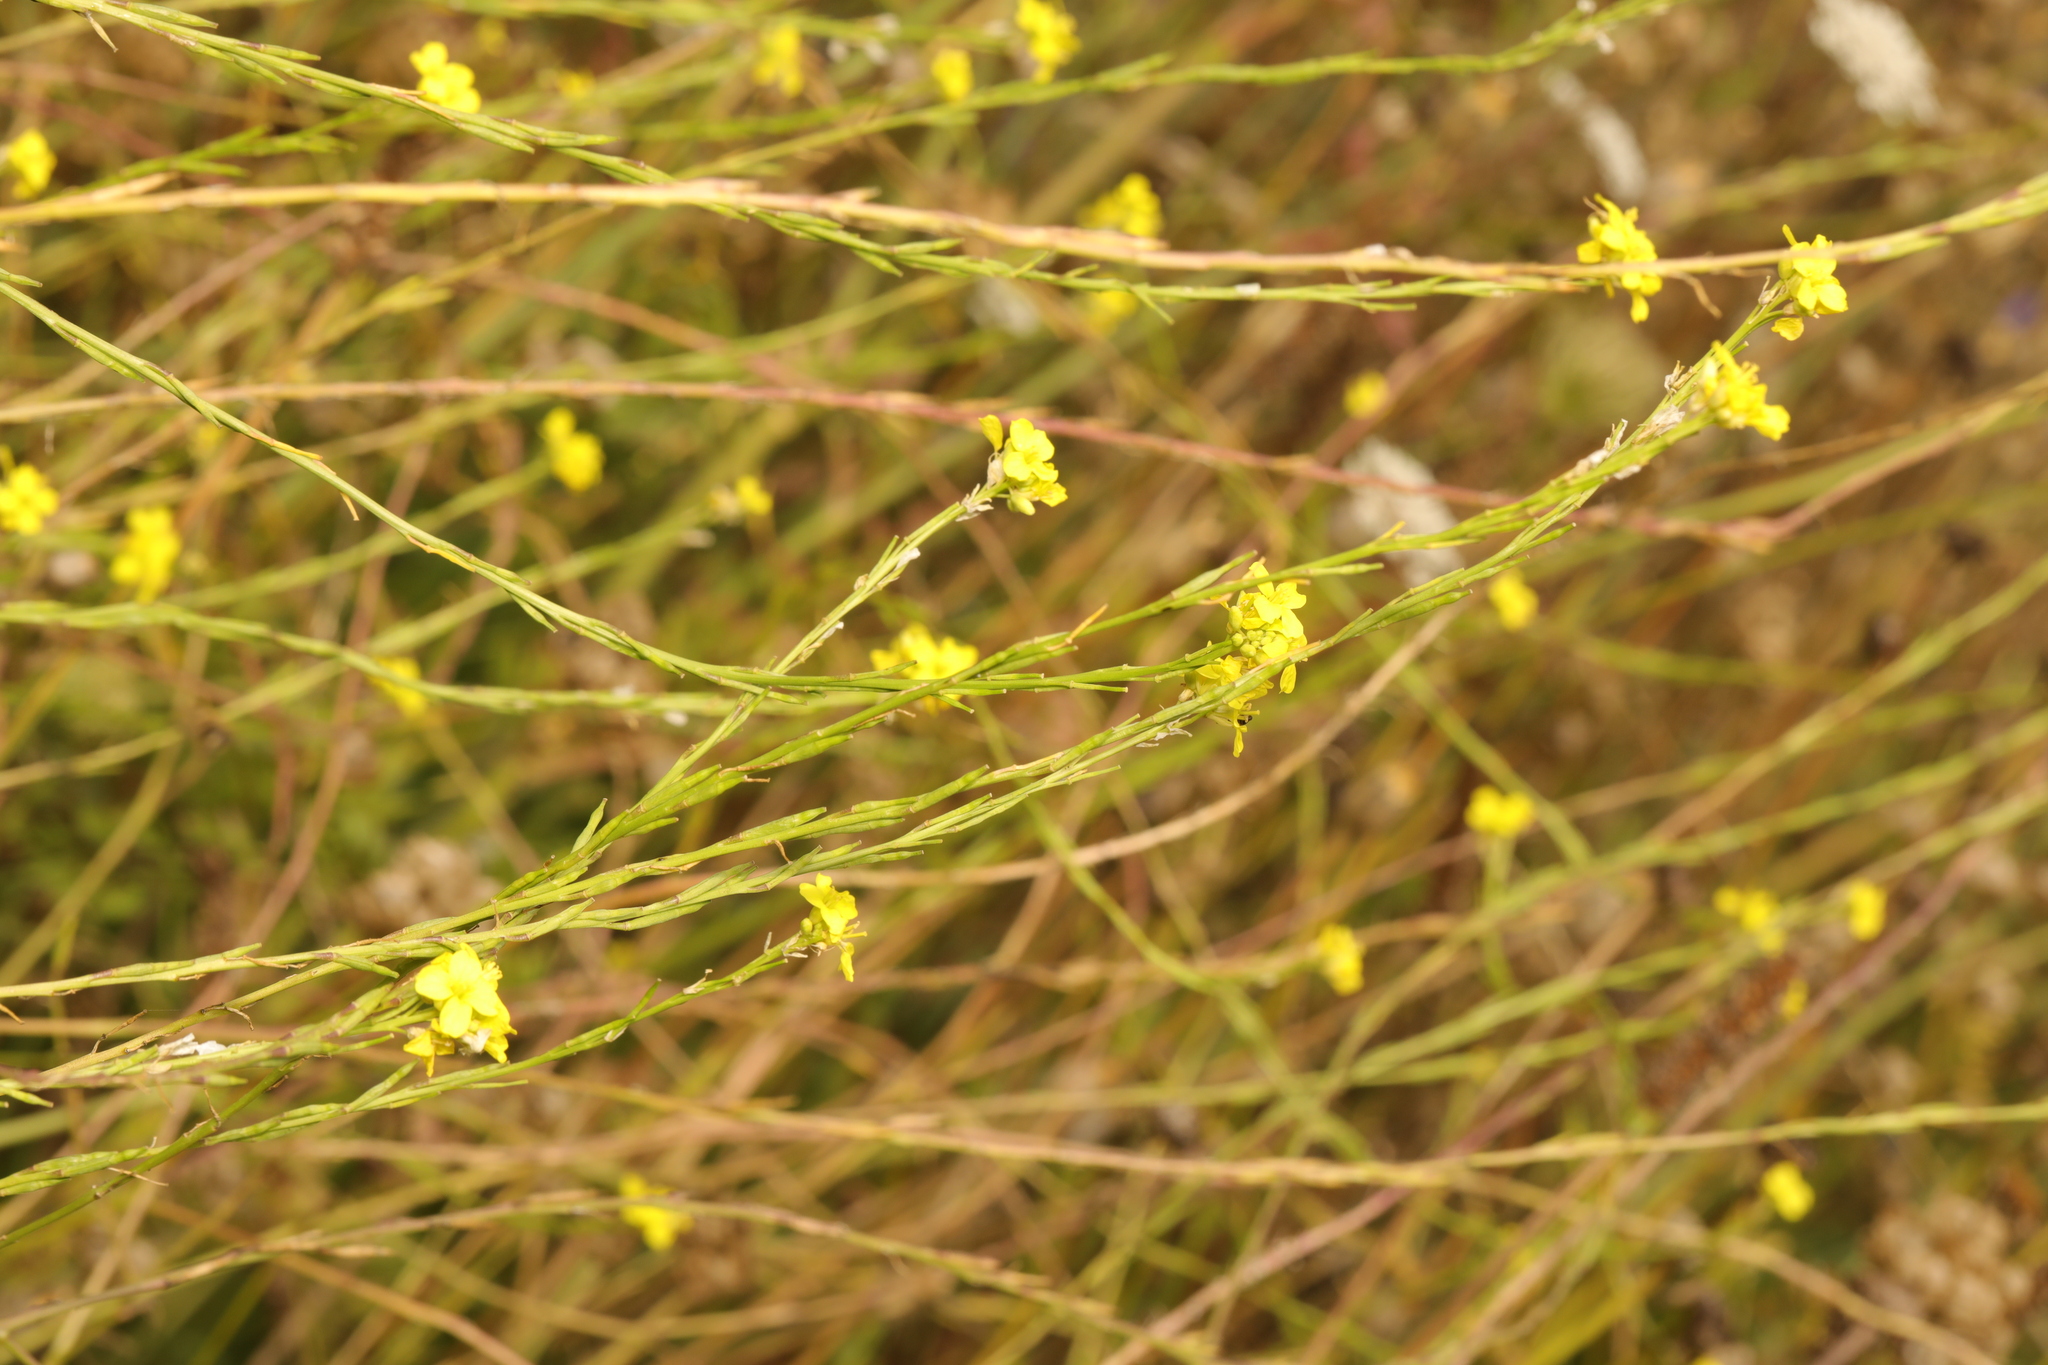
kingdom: Plantae
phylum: Tracheophyta
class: Magnoliopsida
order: Brassicales
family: Brassicaceae
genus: Hirschfeldia
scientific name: Hirschfeldia incana
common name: Hoary mustard
